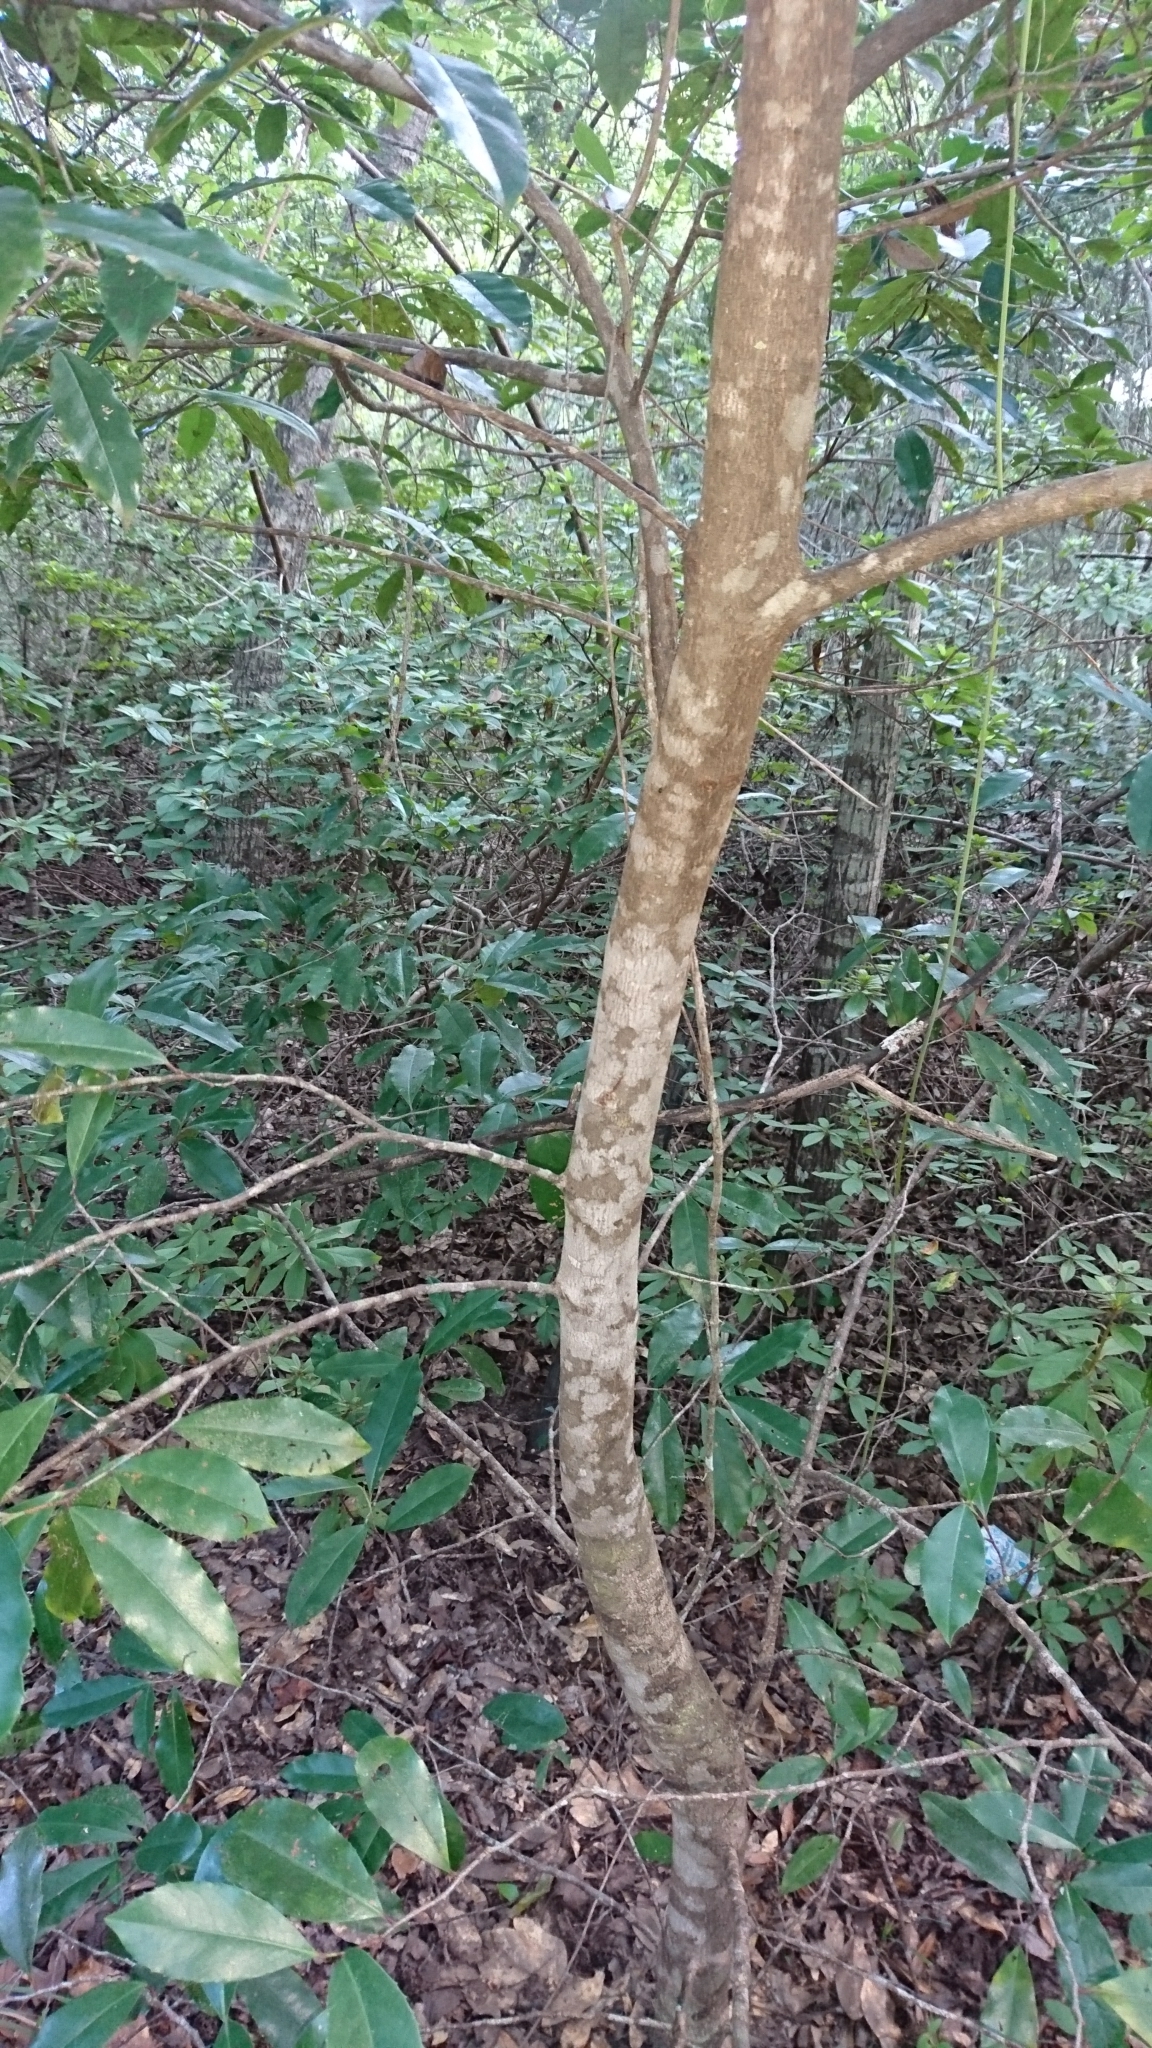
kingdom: Plantae
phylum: Tracheophyta
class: Magnoliopsida
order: Rosales
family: Rosaceae
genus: Prunus
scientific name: Prunus caroliniana
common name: Carolina laurel cherry
